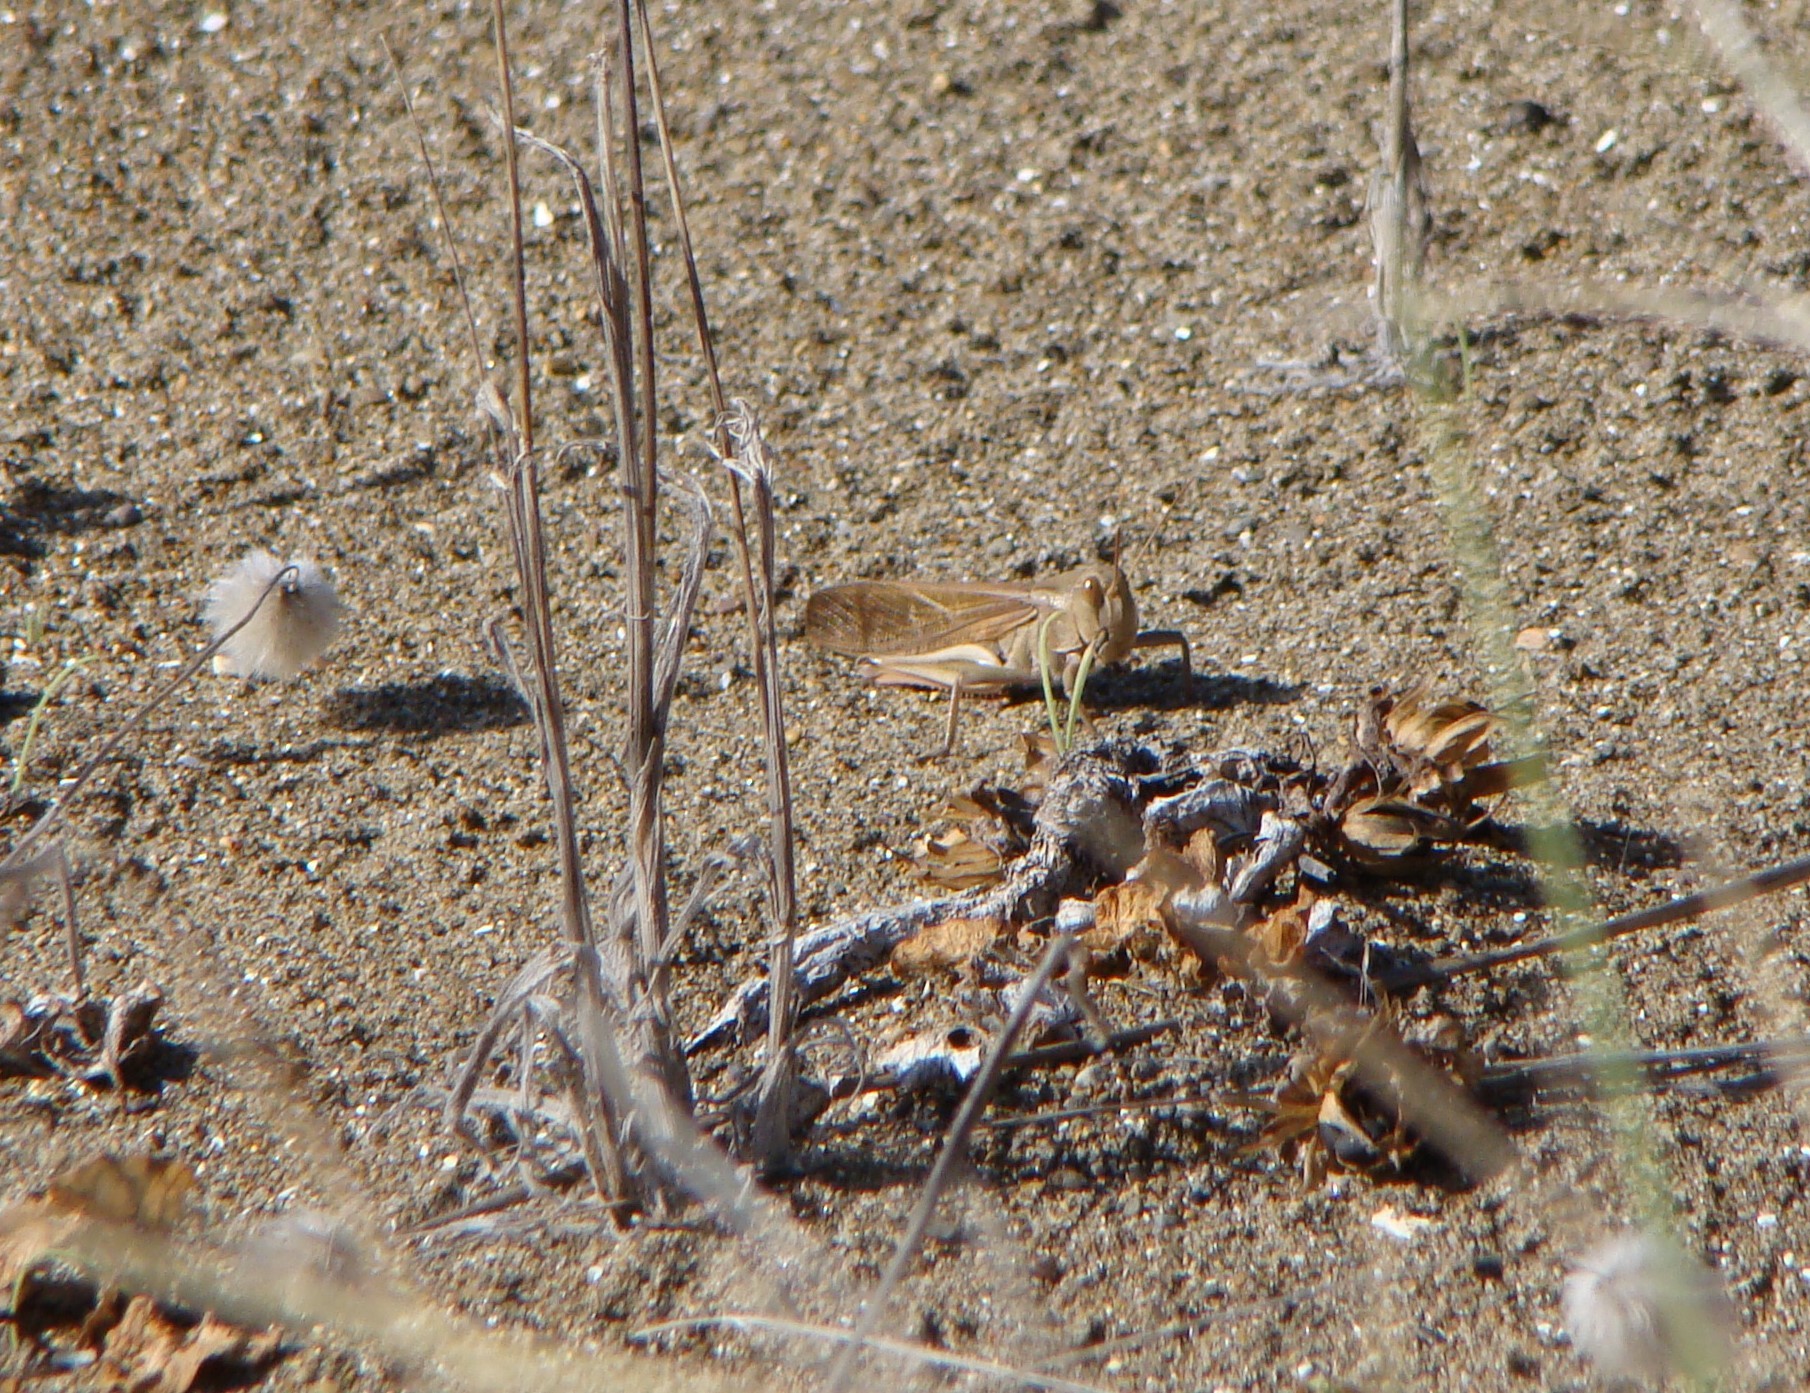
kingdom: Animalia
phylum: Arthropoda
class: Insecta
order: Orthoptera
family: Acrididae
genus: Locusta
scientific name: Locusta migratoria
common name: Migratory locust
